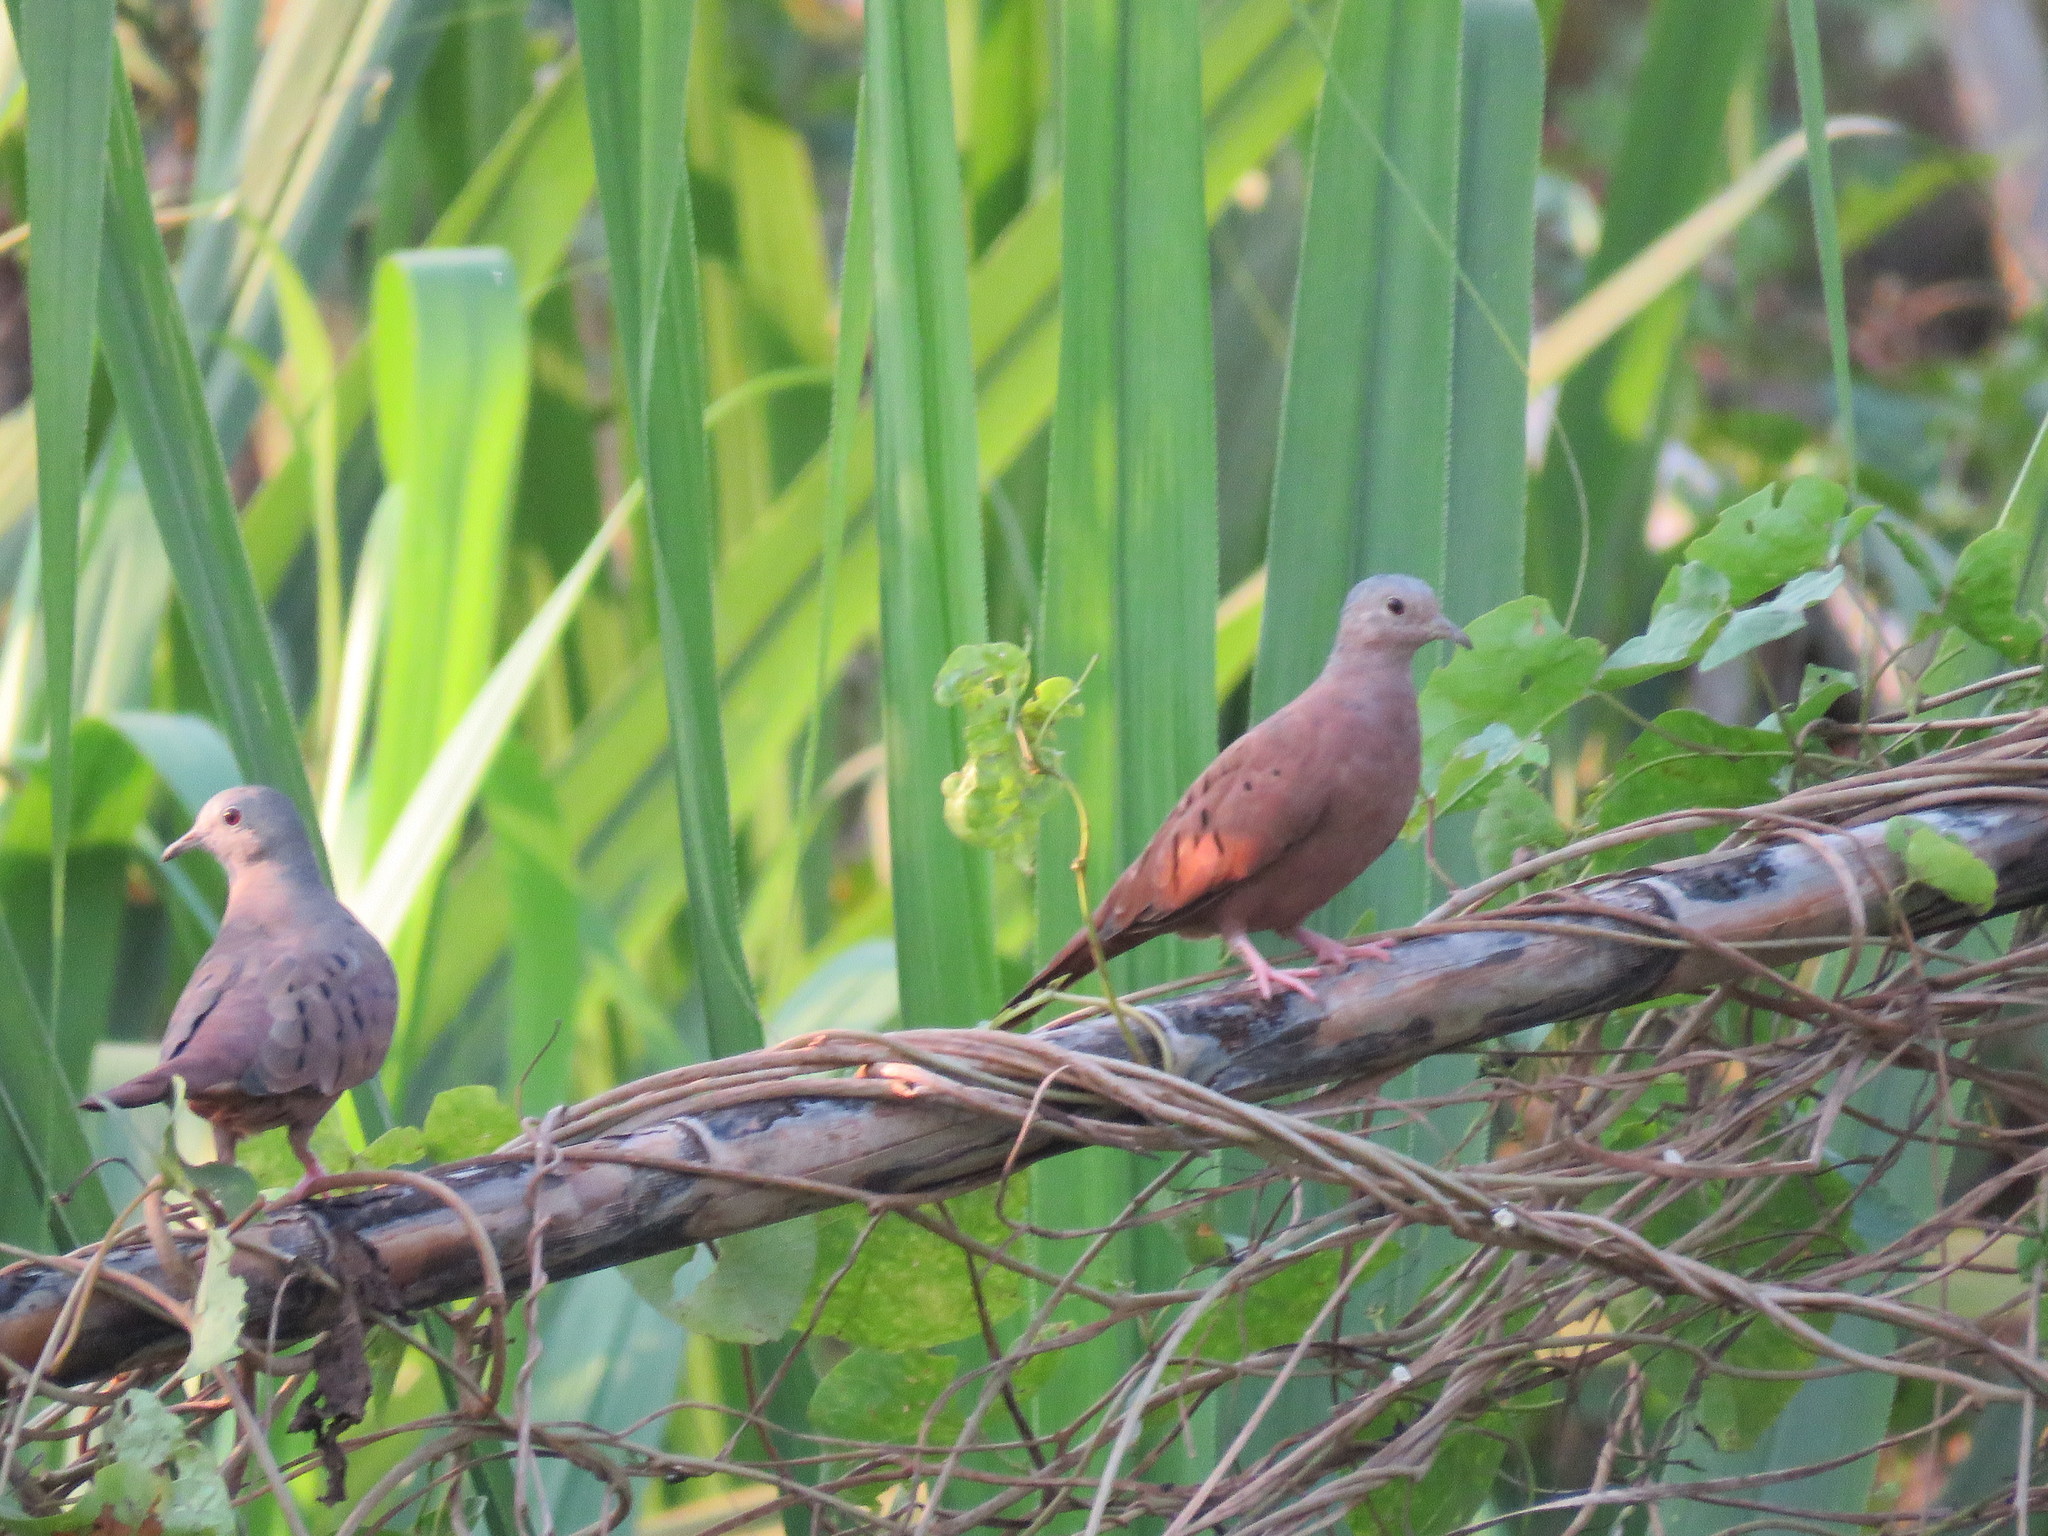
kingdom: Animalia
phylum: Chordata
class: Aves
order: Columbiformes
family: Columbidae
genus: Columbina
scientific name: Columbina talpacoti
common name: Ruddy ground dove
